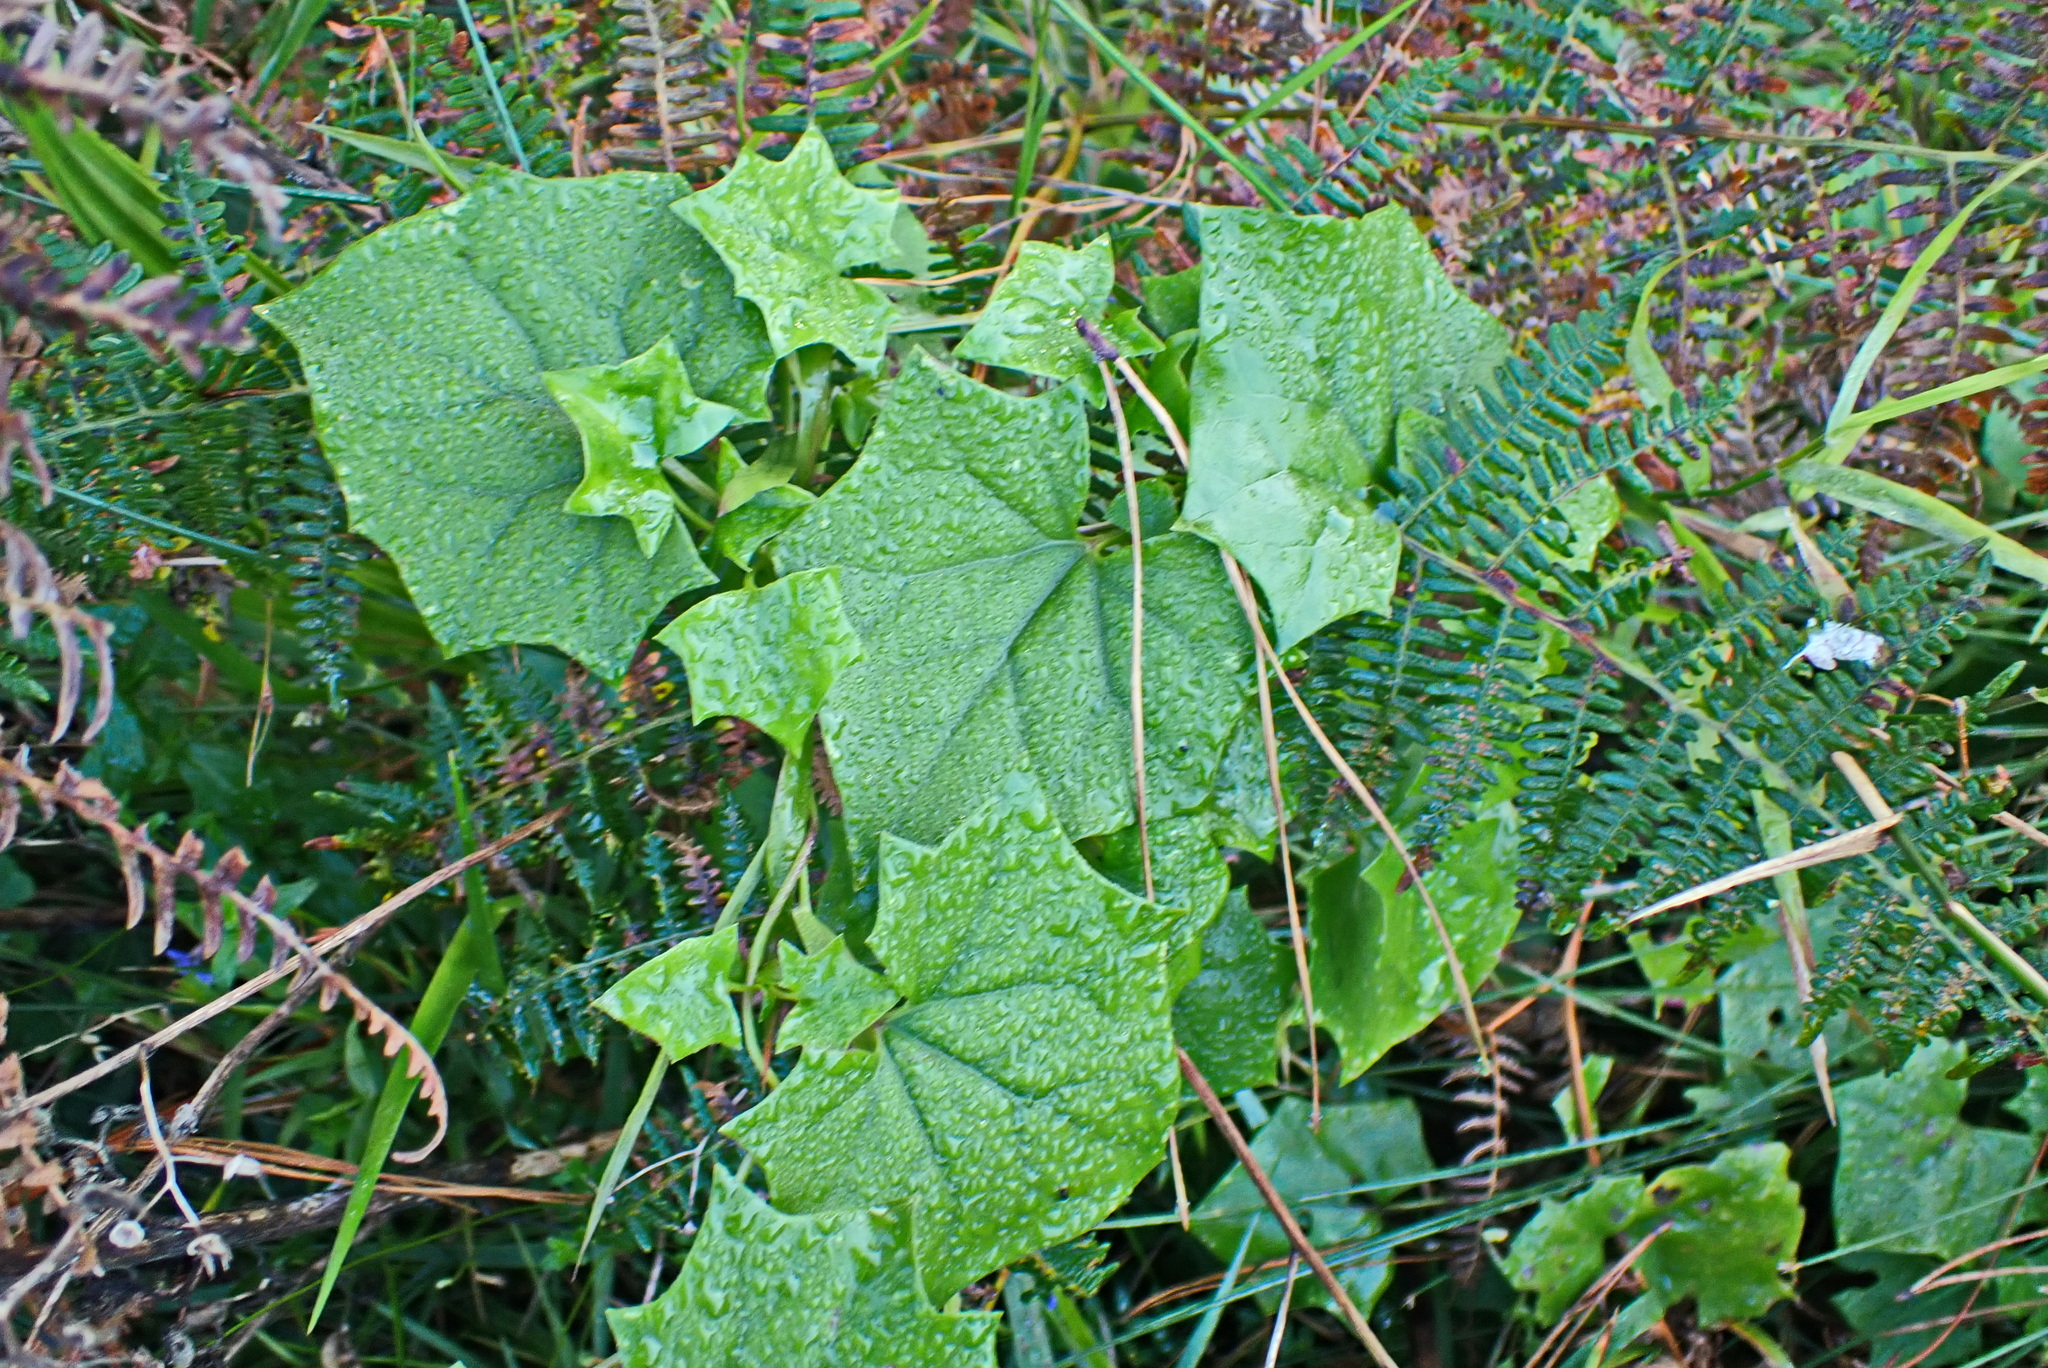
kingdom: Plantae
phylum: Tracheophyta
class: Magnoliopsida
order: Asterales
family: Asteraceae
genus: Delairea
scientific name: Delairea odorata
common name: Cape-ivy
